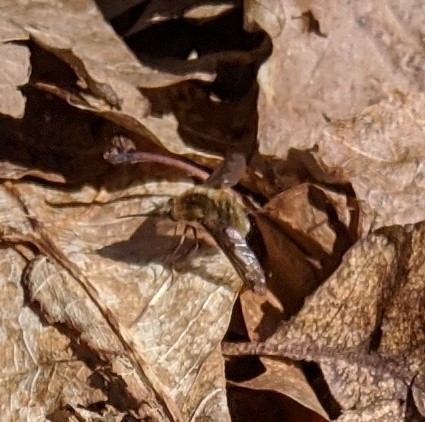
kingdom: Animalia
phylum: Arthropoda
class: Insecta
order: Diptera
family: Bombyliidae
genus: Bombylius
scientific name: Bombylius major
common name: Bee fly
